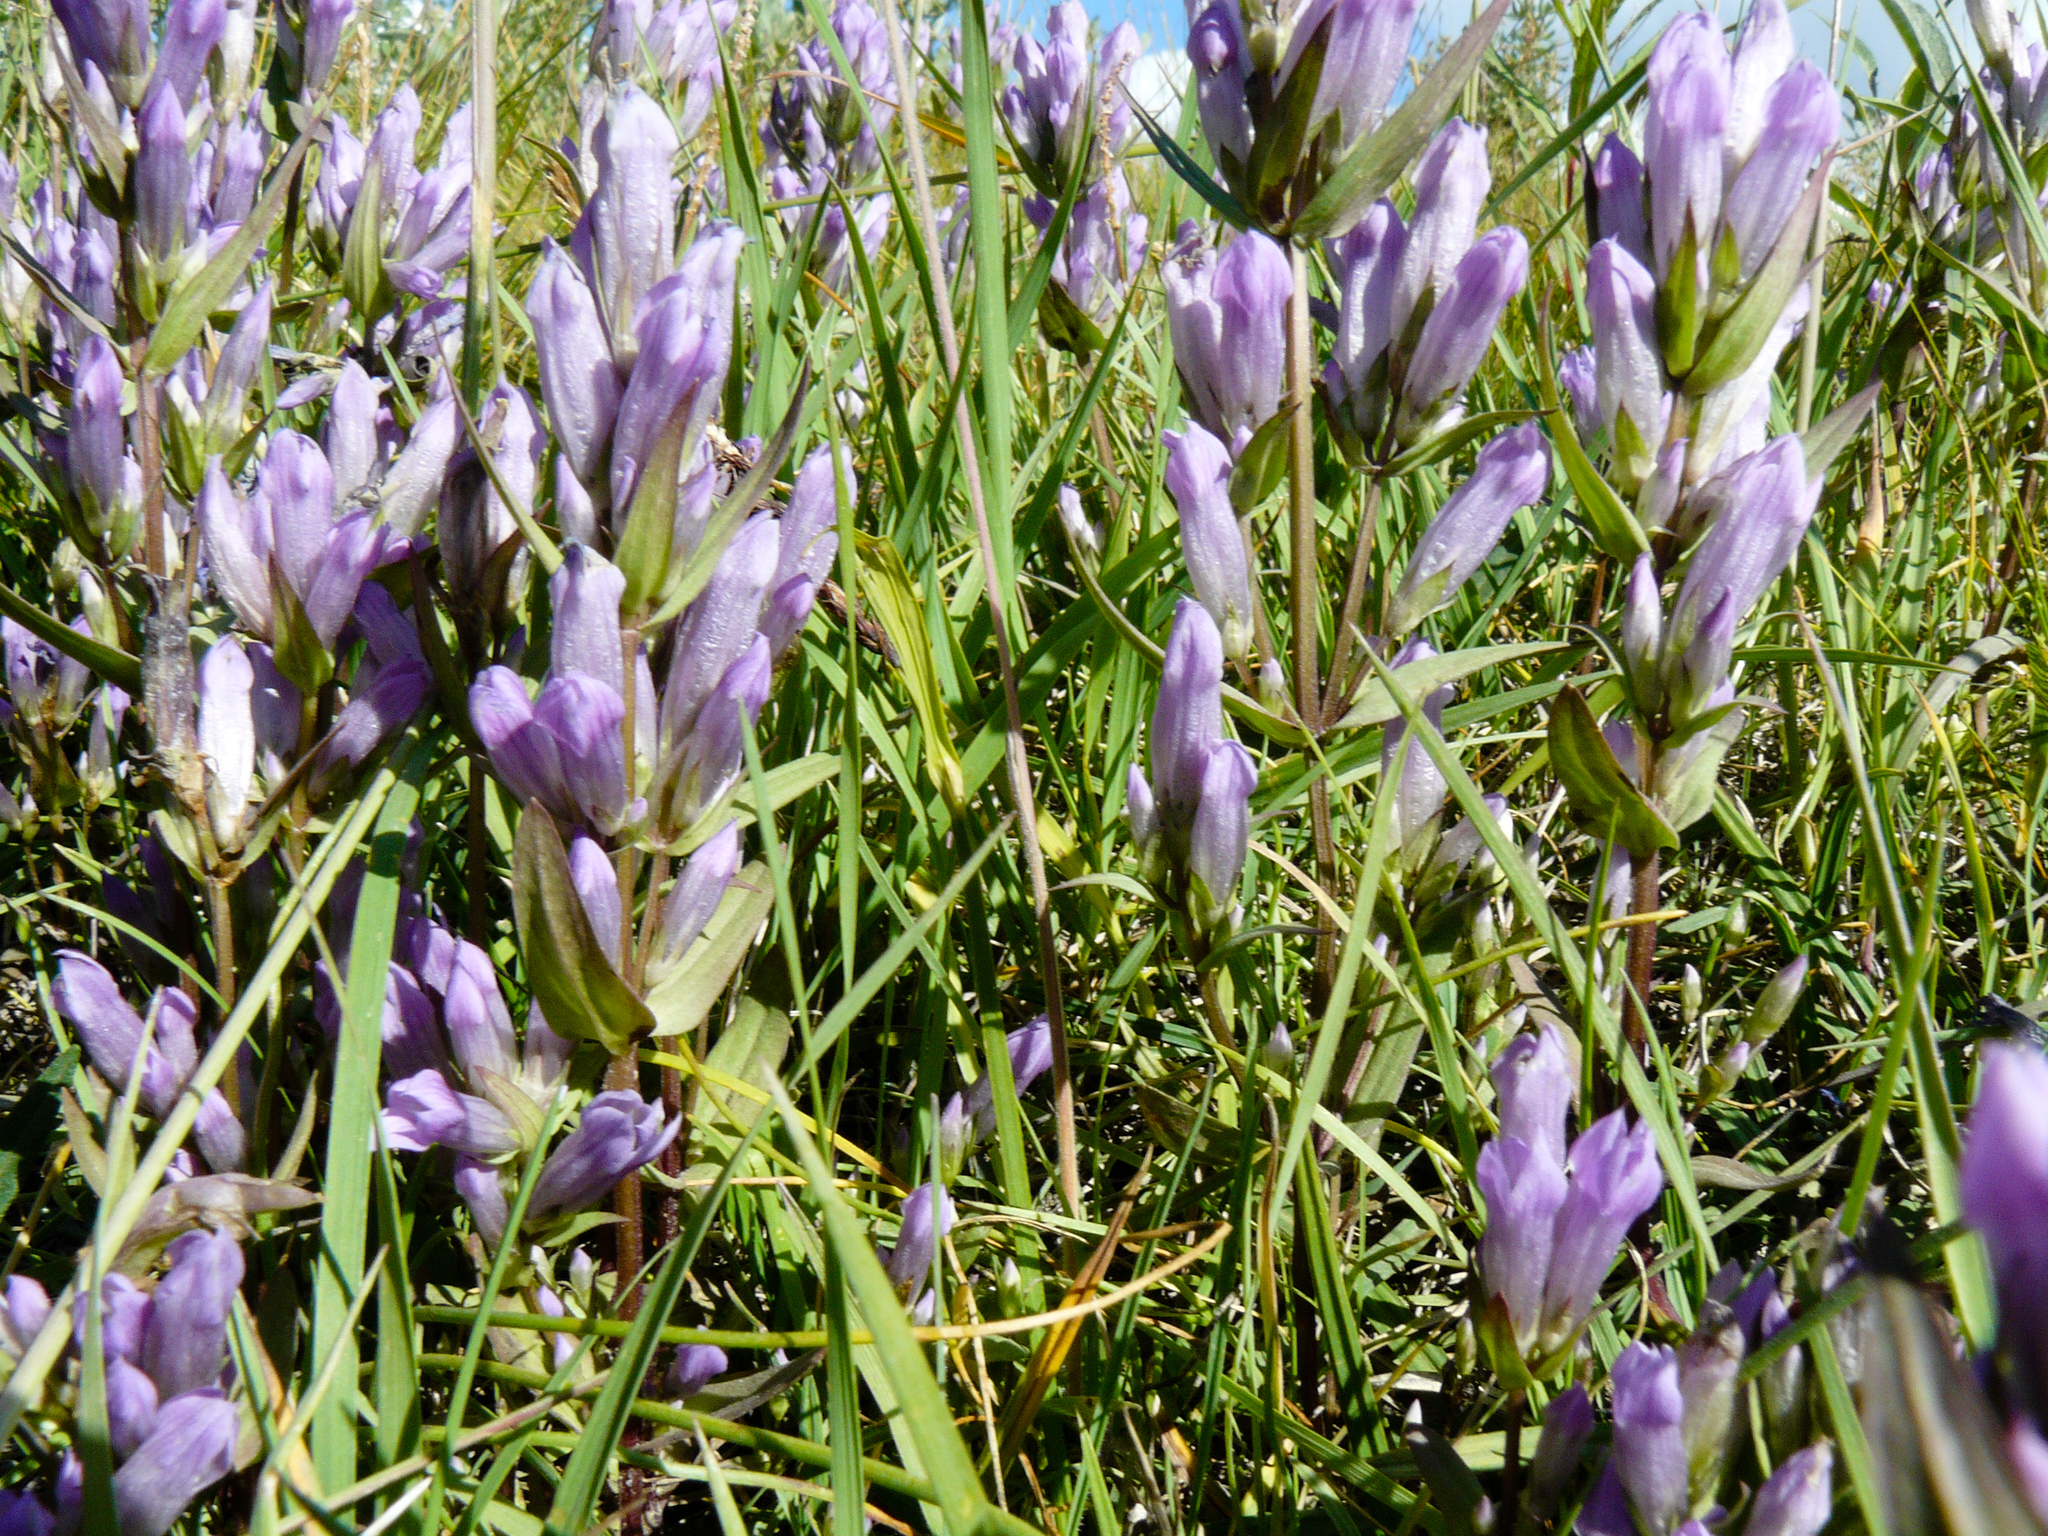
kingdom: Plantae
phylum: Tracheophyta
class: Magnoliopsida
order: Gentianales
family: Gentianaceae
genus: Gentianella
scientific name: Gentianella propinqua
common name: Four-parted dwarf-gentian
